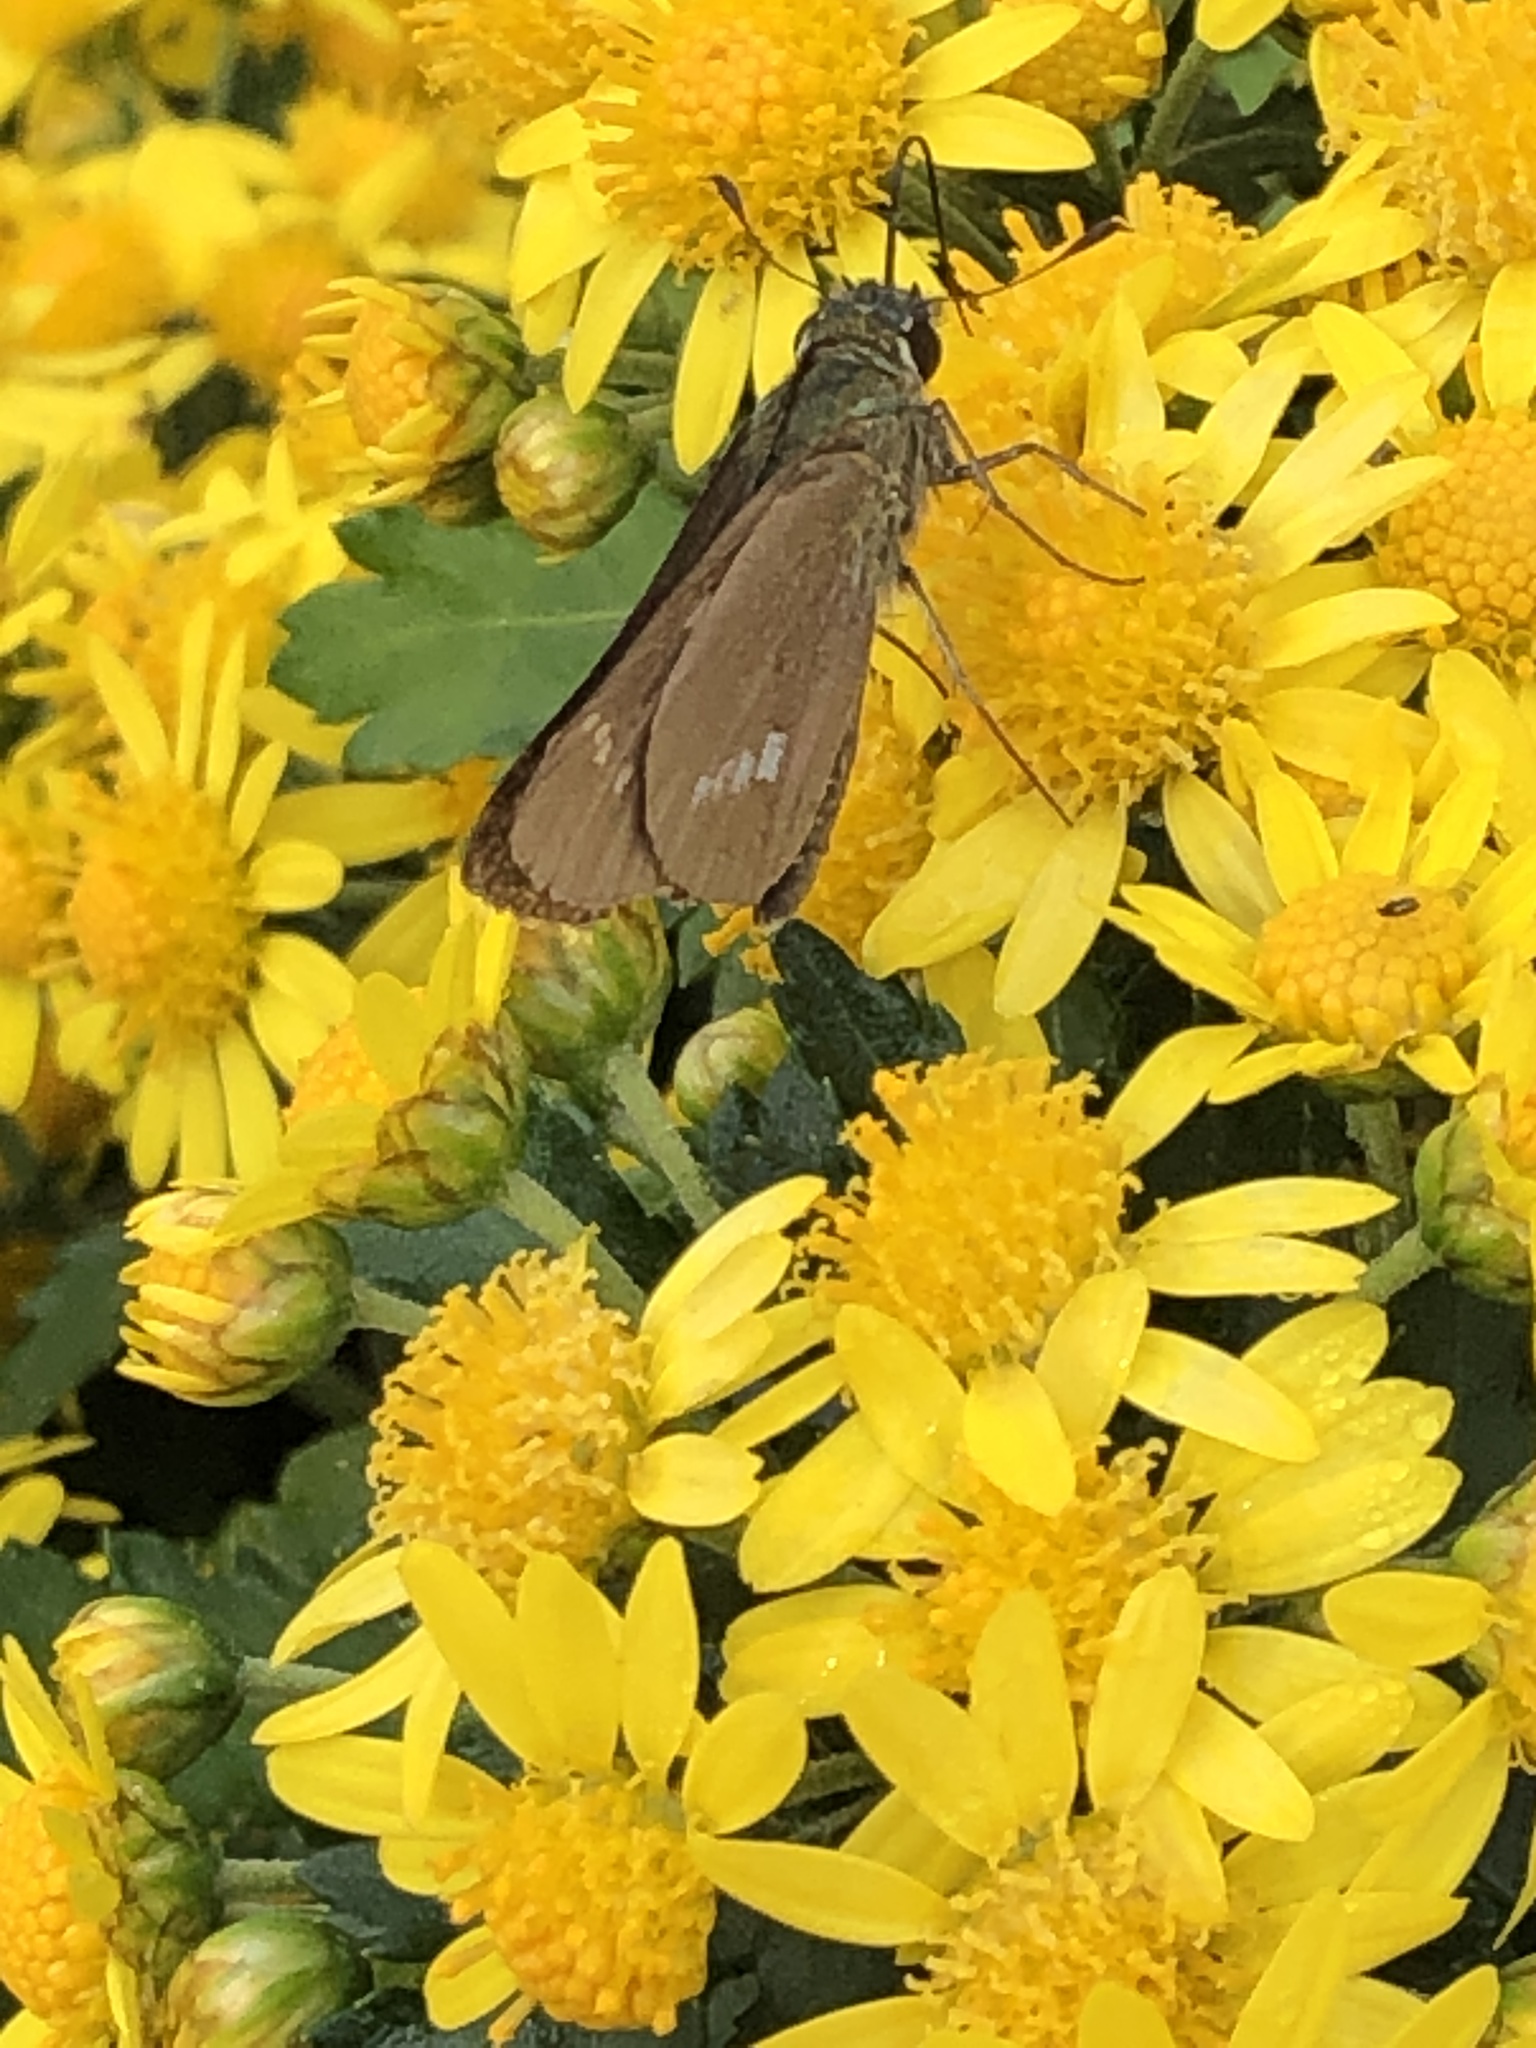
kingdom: Animalia
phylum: Arthropoda
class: Insecta
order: Lepidoptera
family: Hesperiidae
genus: Parnara
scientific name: Parnara guttatus
